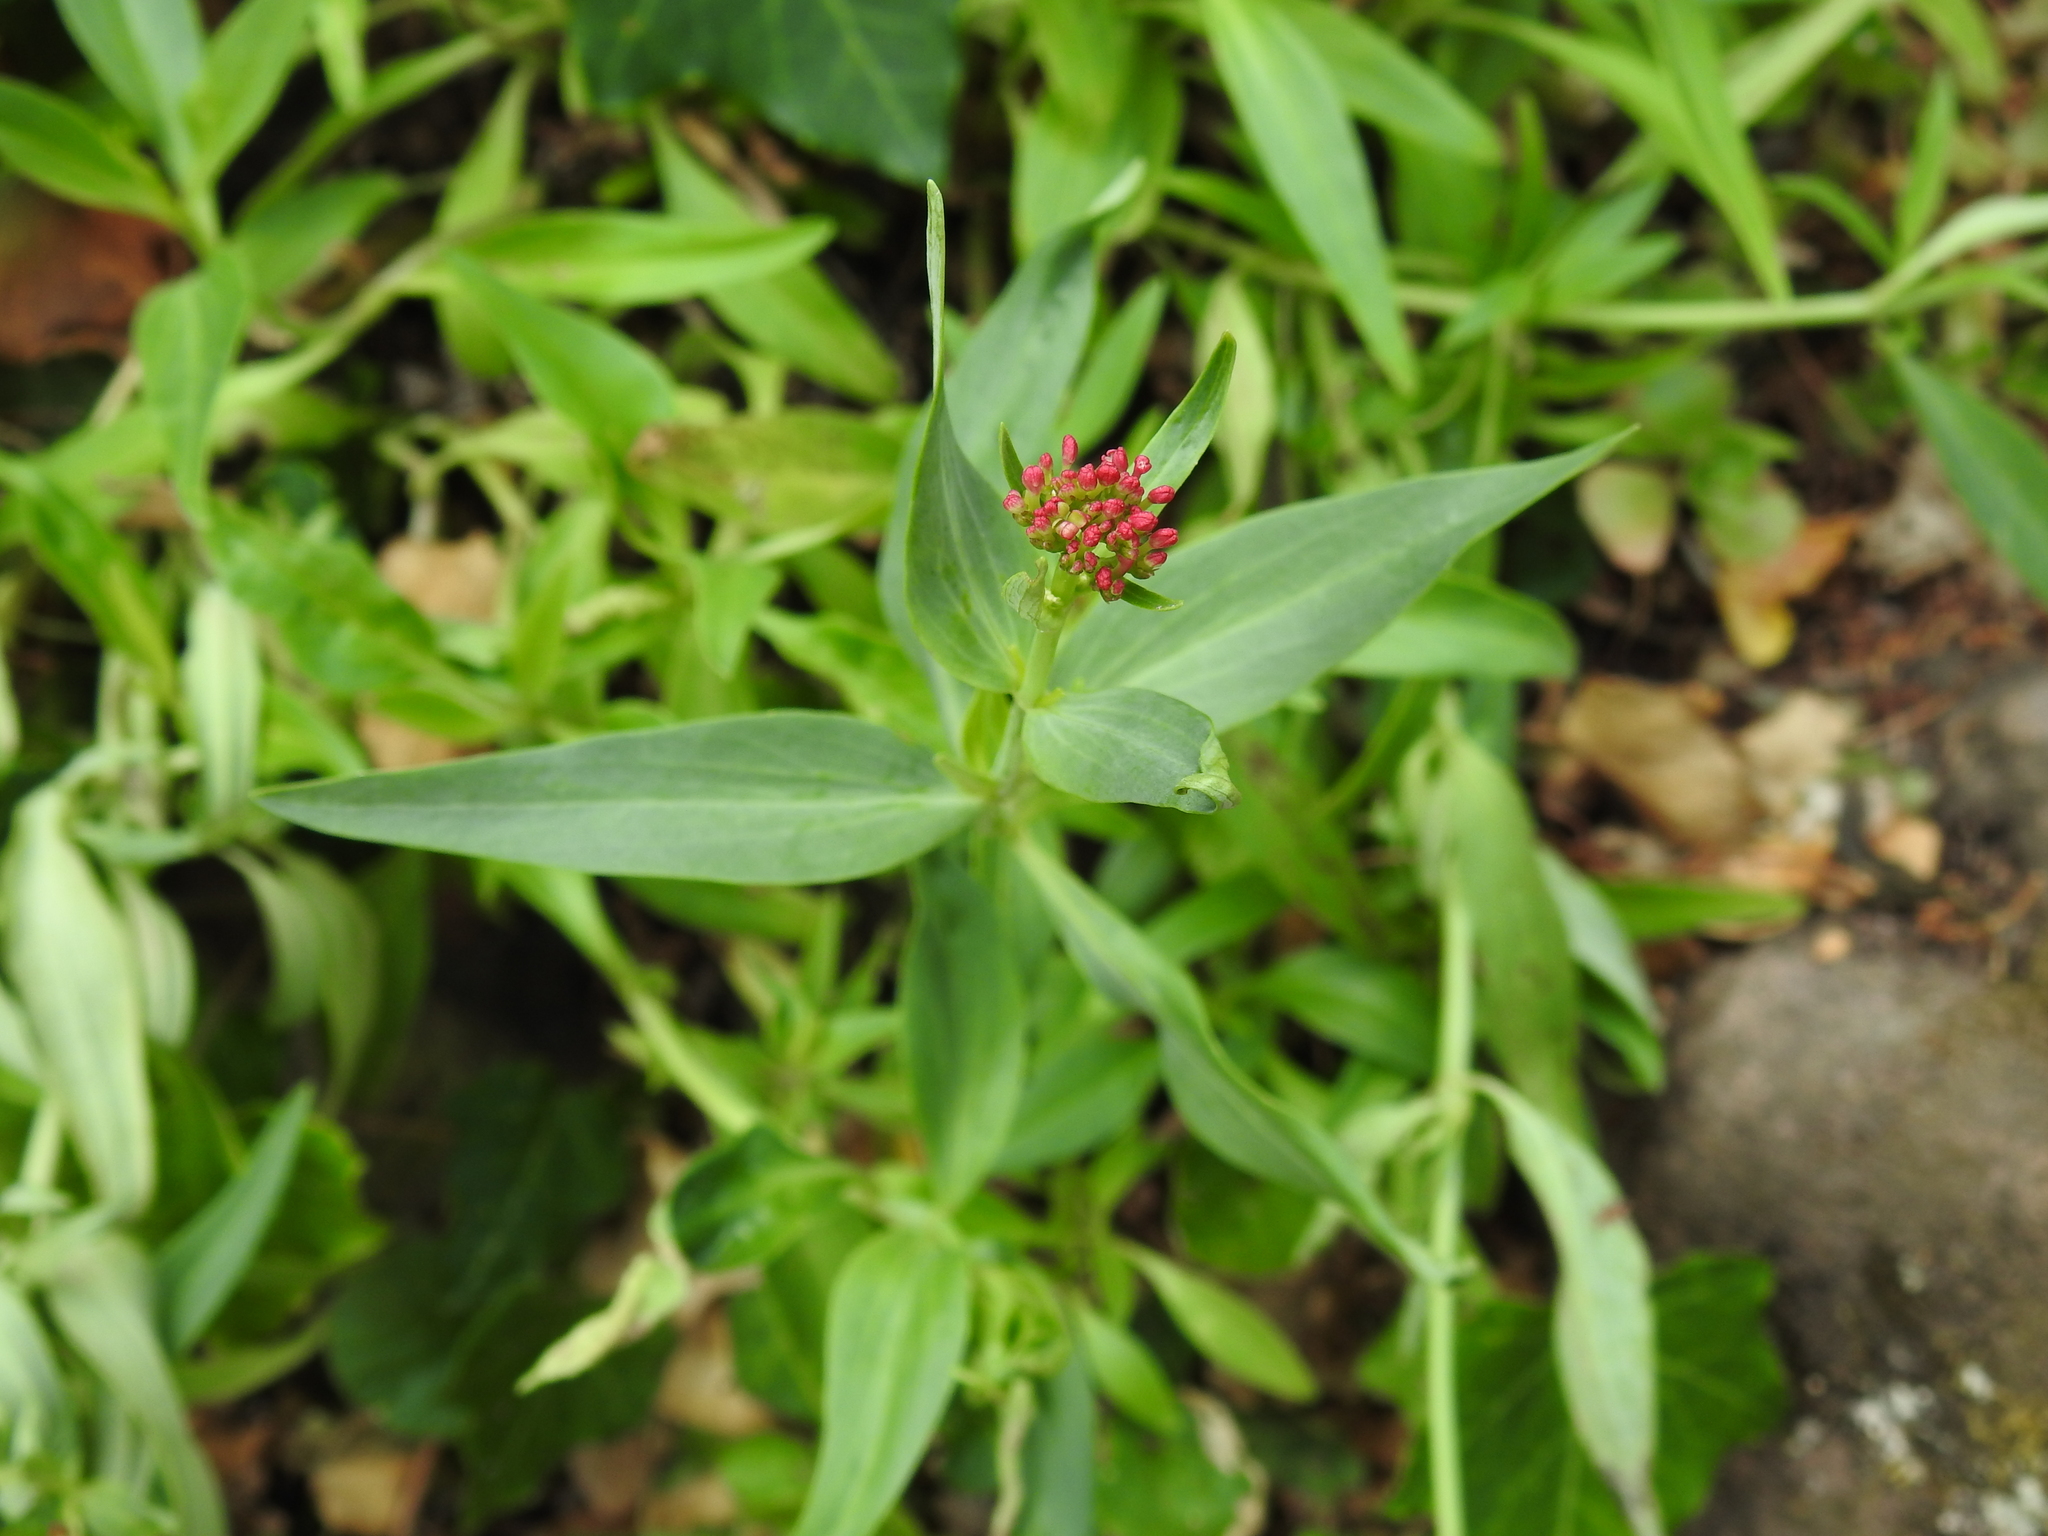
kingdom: Plantae
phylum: Tracheophyta
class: Magnoliopsida
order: Dipsacales
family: Caprifoliaceae
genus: Centranthus
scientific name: Centranthus ruber
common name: Red valerian
